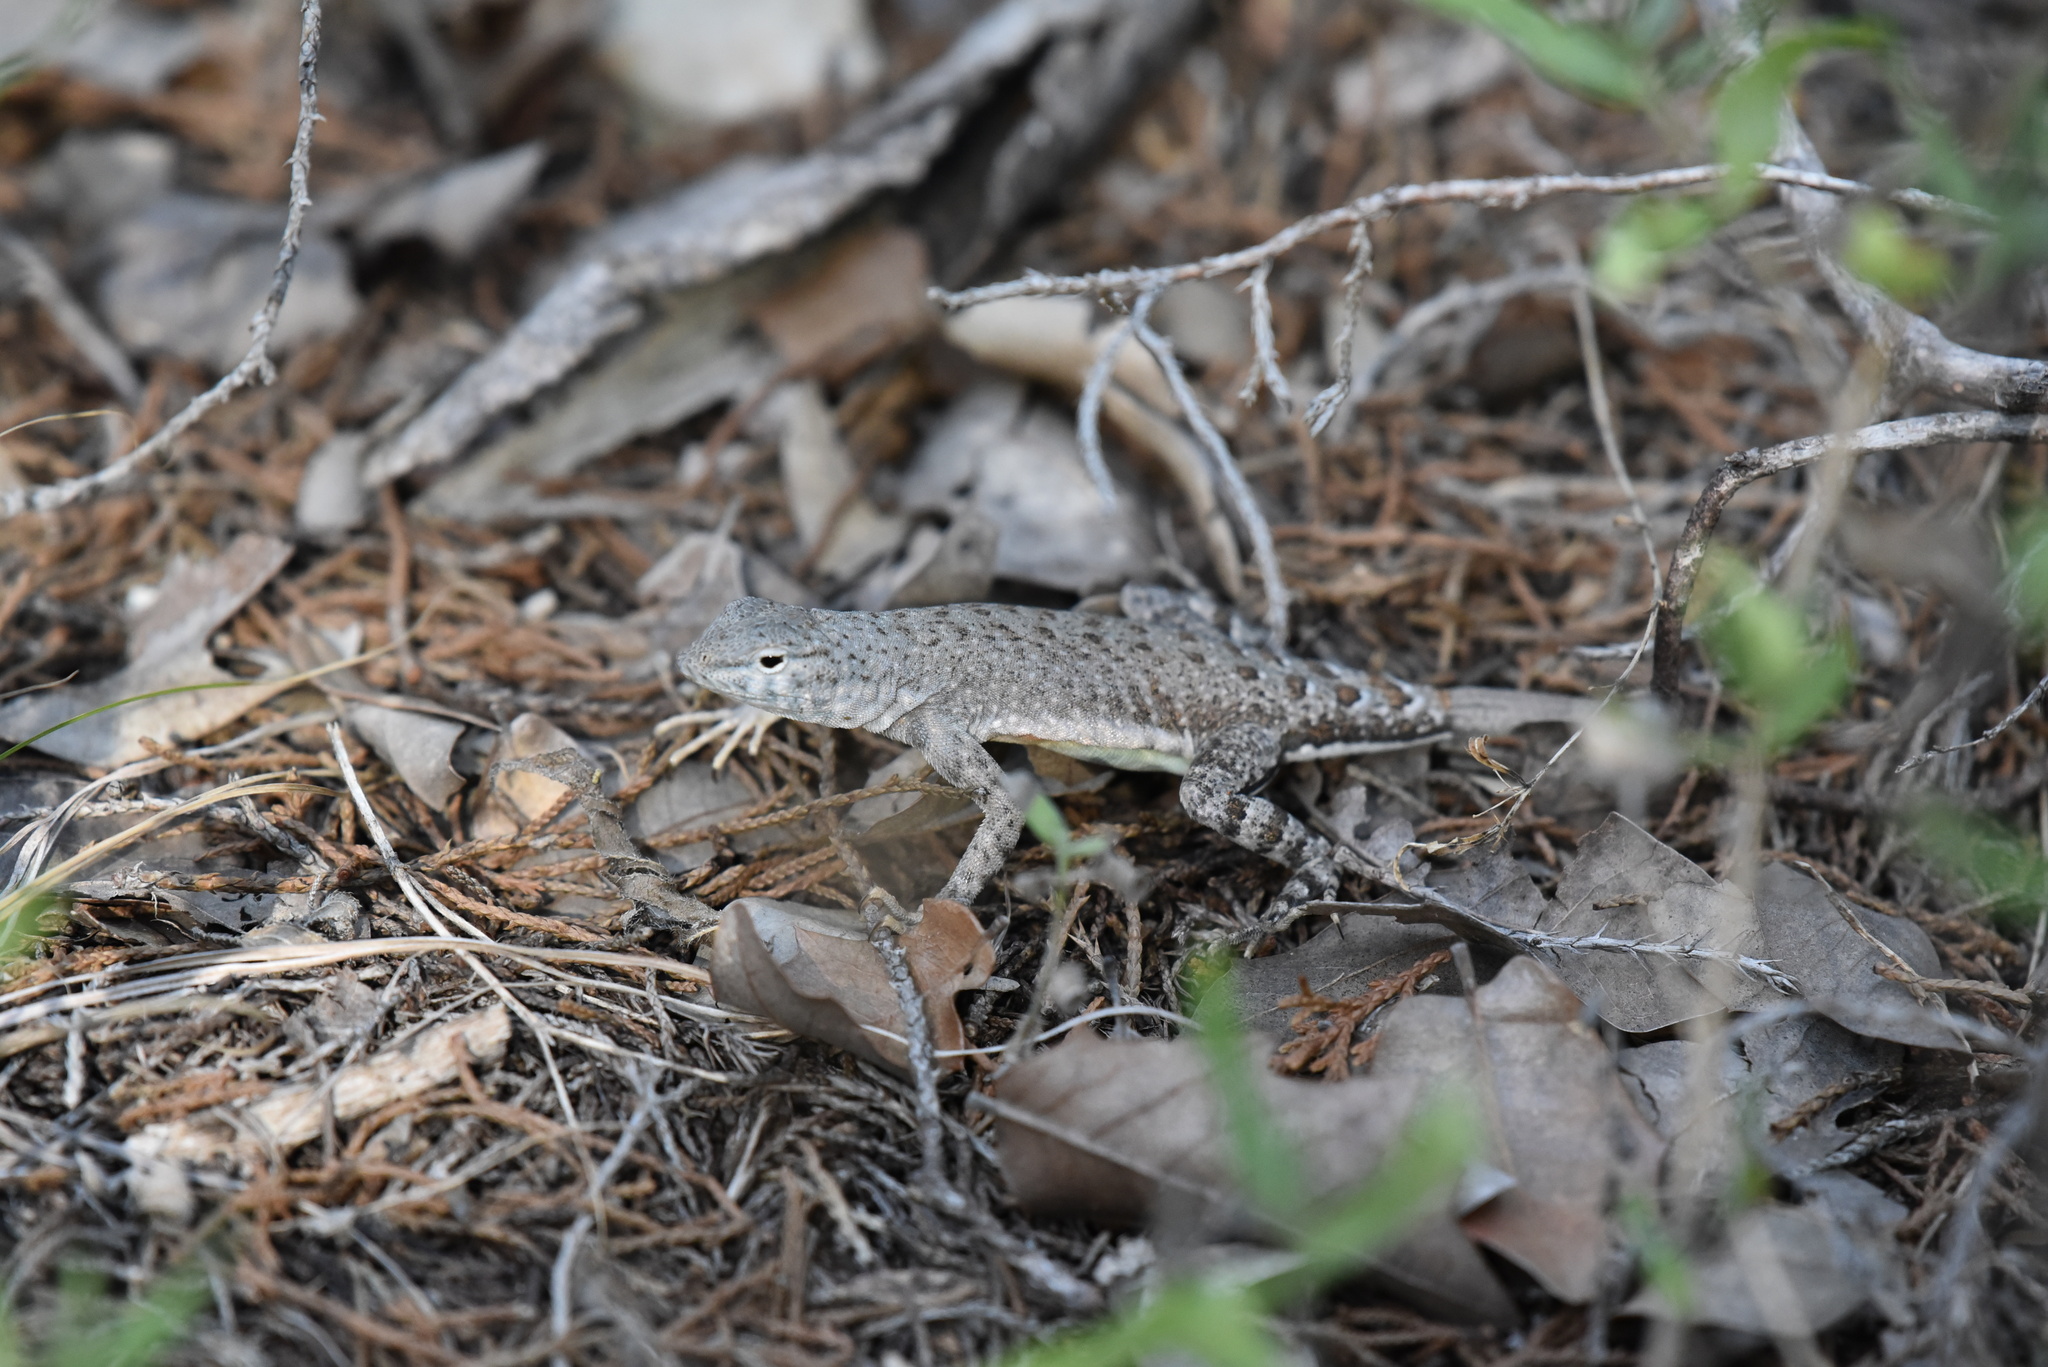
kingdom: Animalia
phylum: Chordata
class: Squamata
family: Phrynosomatidae
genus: Cophosaurus
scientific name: Cophosaurus texanus
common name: Greater earless lizard
